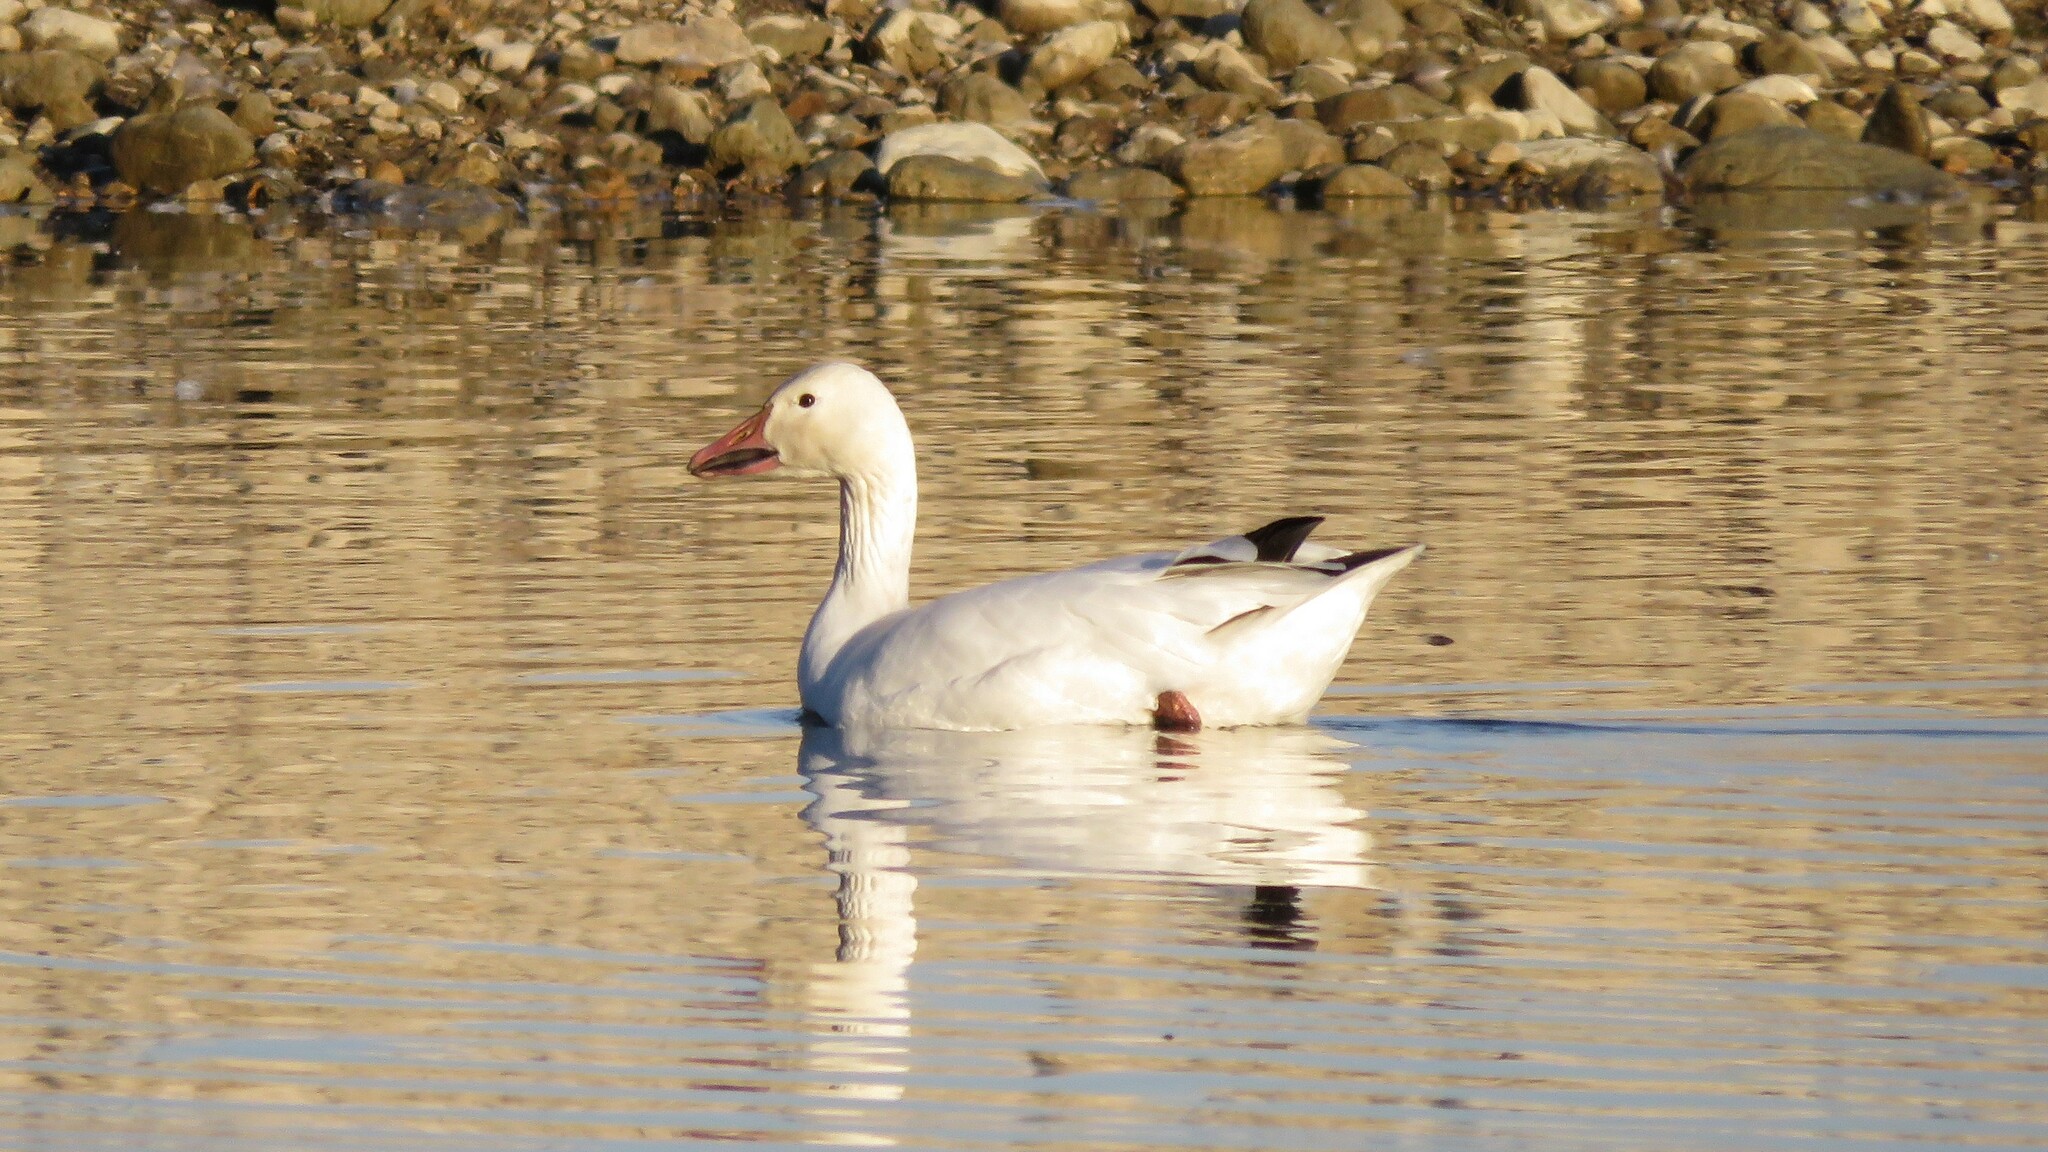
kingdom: Animalia
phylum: Chordata
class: Aves
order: Anseriformes
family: Anatidae
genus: Anser
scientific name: Anser caerulescens
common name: Snow goose
